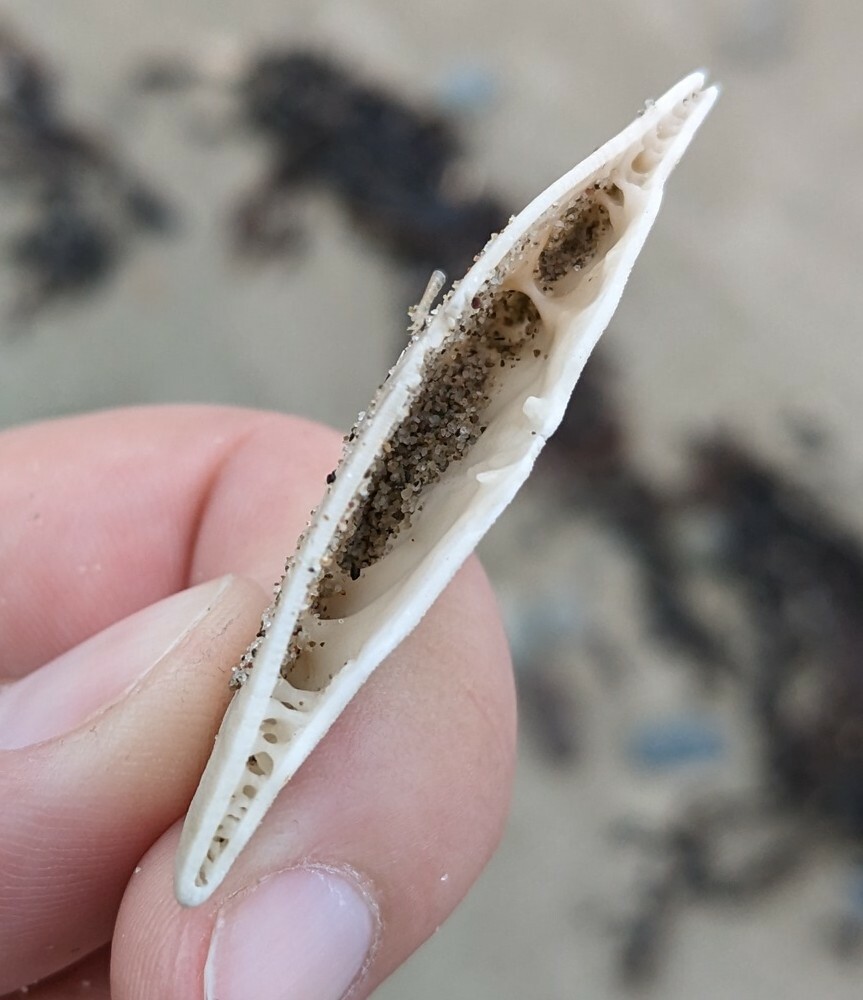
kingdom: Animalia
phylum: Echinodermata
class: Echinoidea
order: Echinolampadacea
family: Echinarachniidae
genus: Echinarachnius
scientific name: Echinarachnius parma
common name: Common sand dollar
